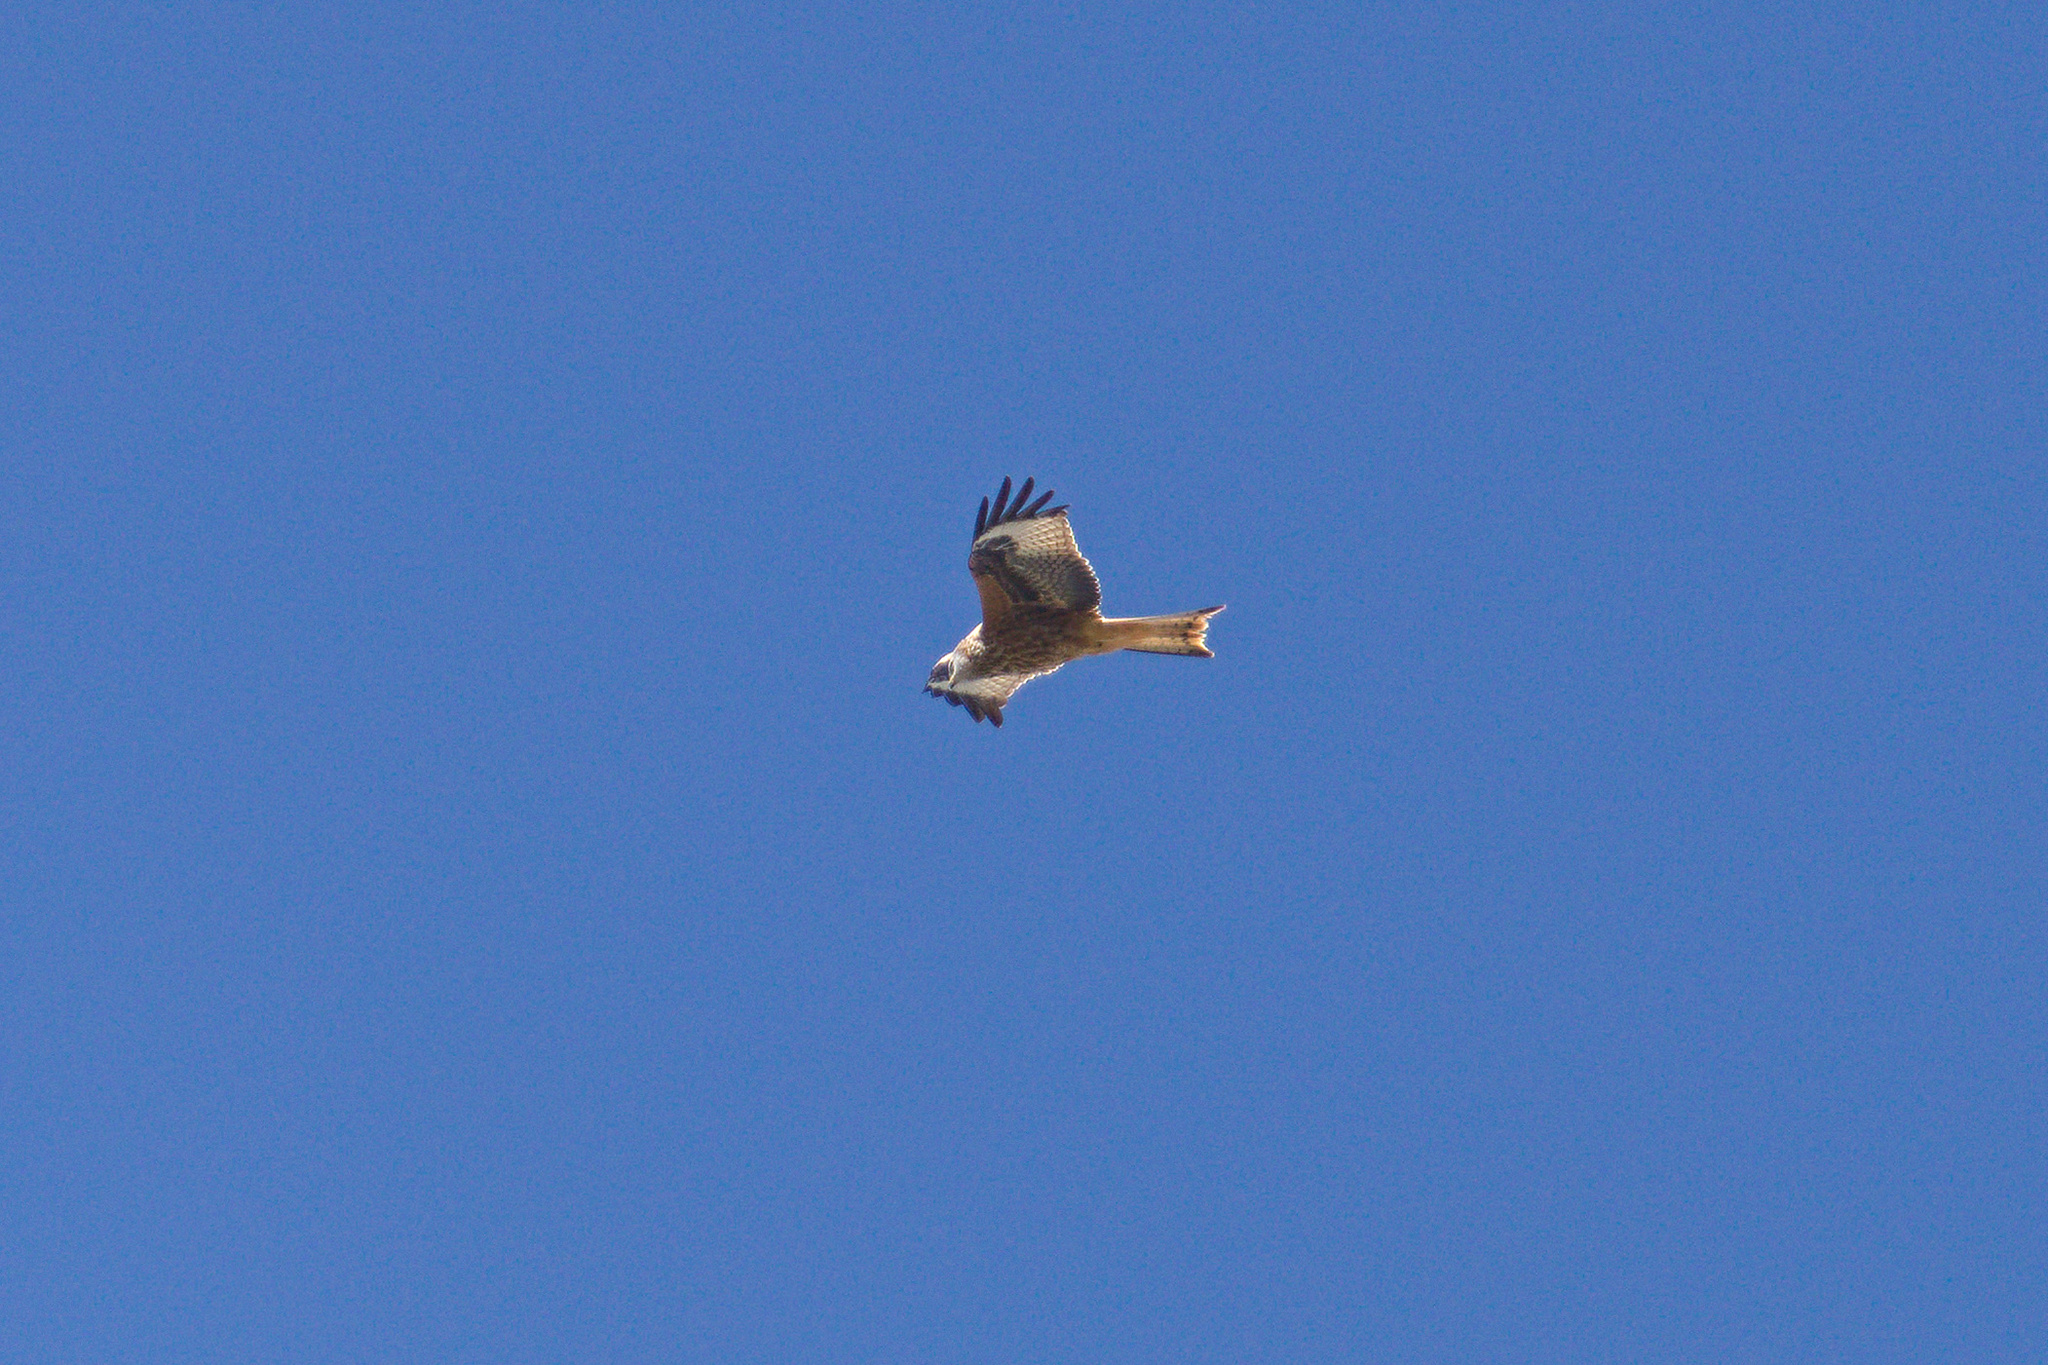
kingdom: Animalia
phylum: Chordata
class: Aves
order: Accipitriformes
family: Accipitridae
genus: Milvus
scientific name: Milvus milvus
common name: Red kite
